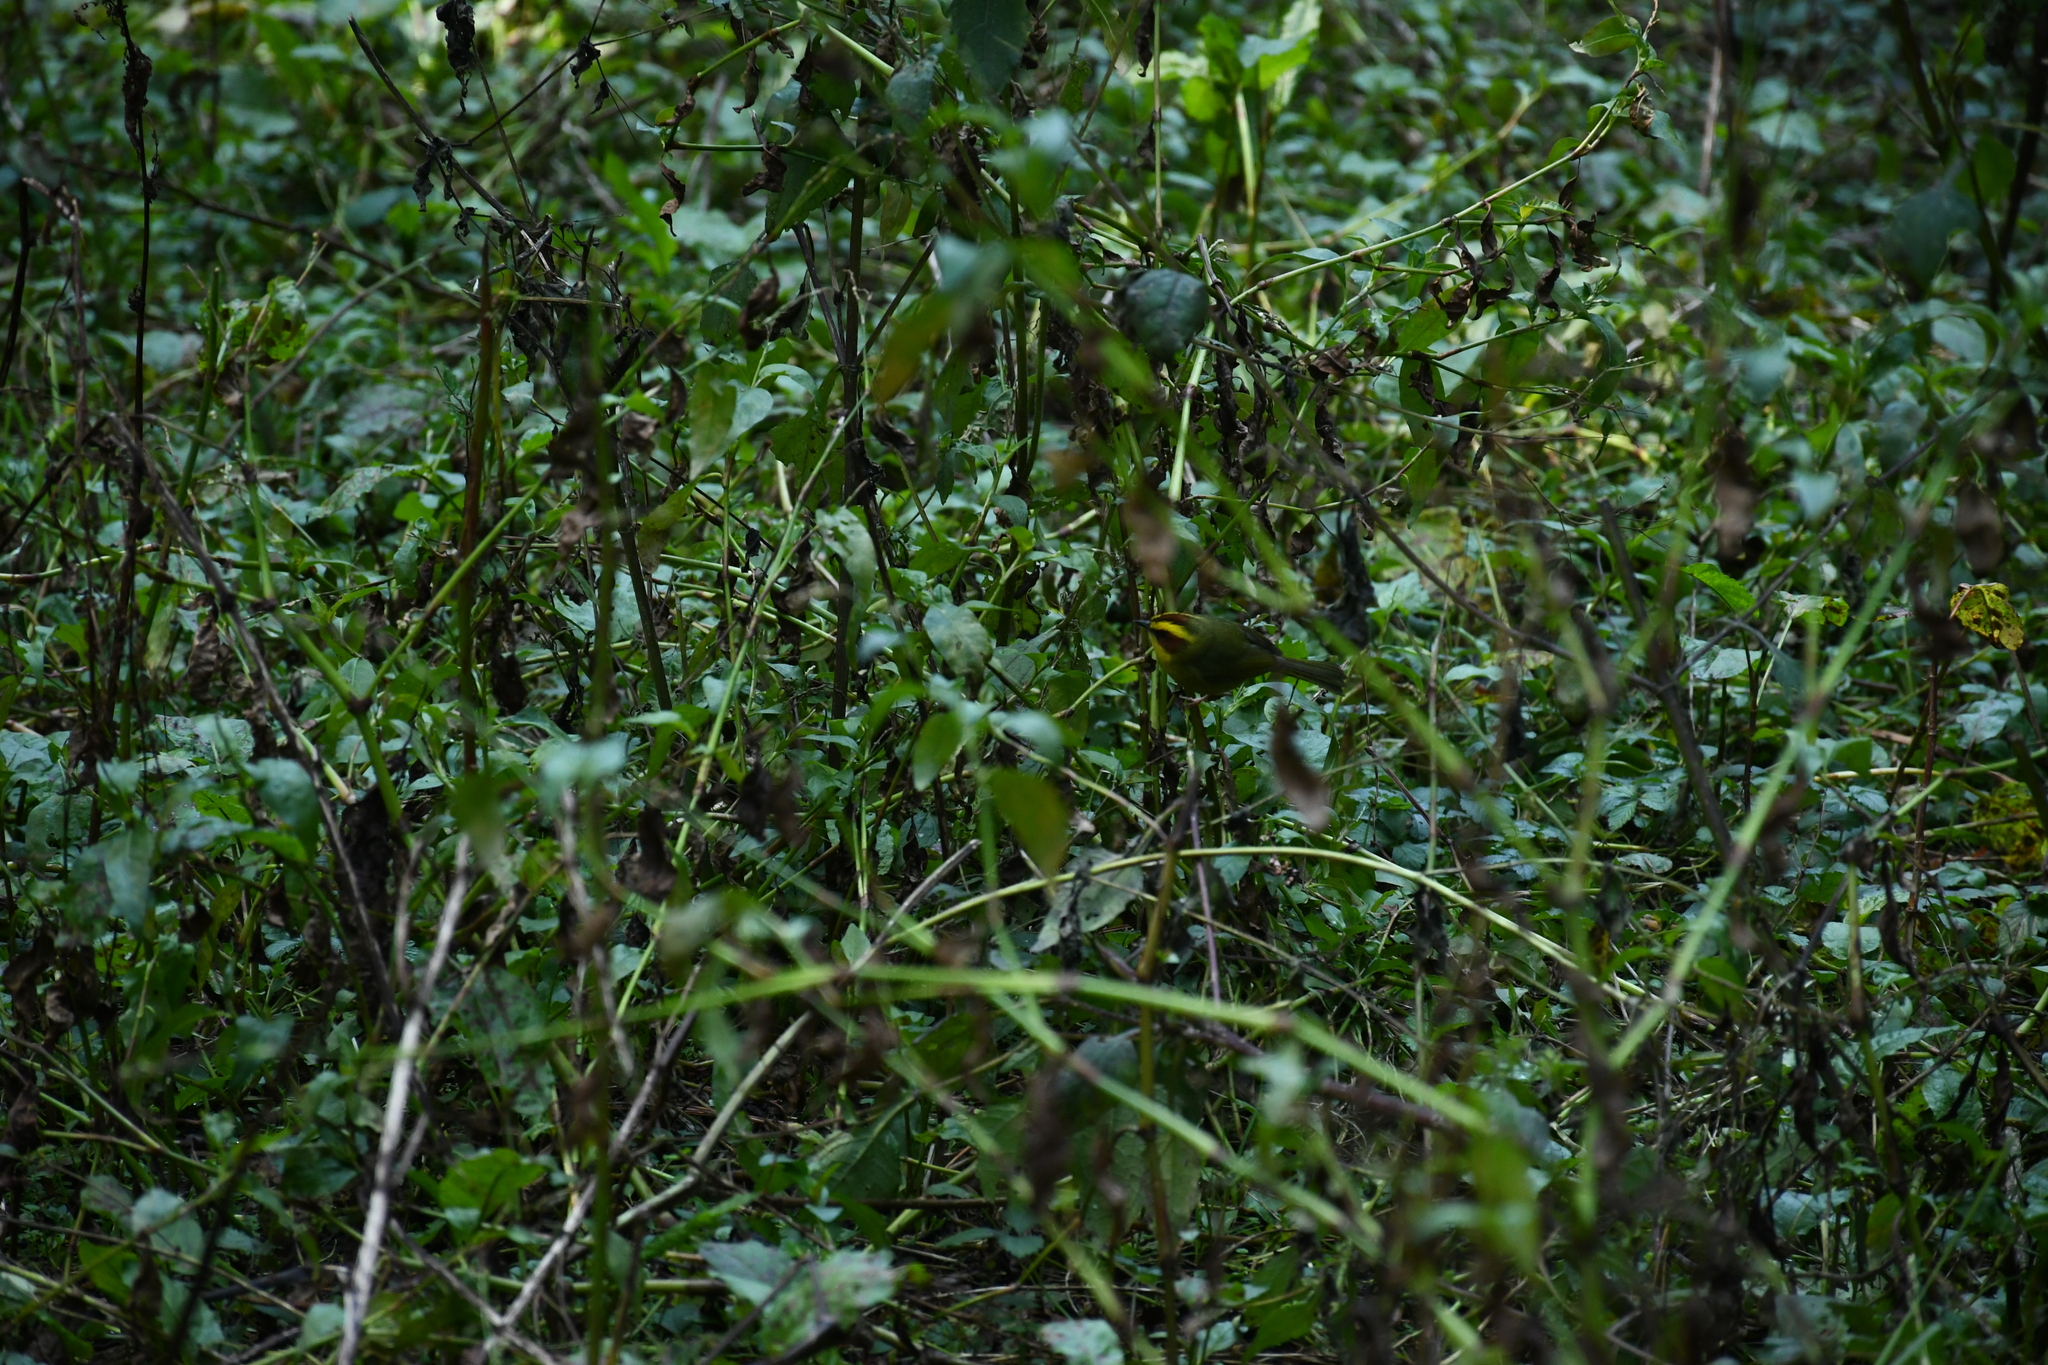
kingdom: Animalia
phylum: Chordata
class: Aves
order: Passeriformes
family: Parulidae
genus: Basileuterus
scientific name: Basileuterus belli
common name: Golden-browed warbler
